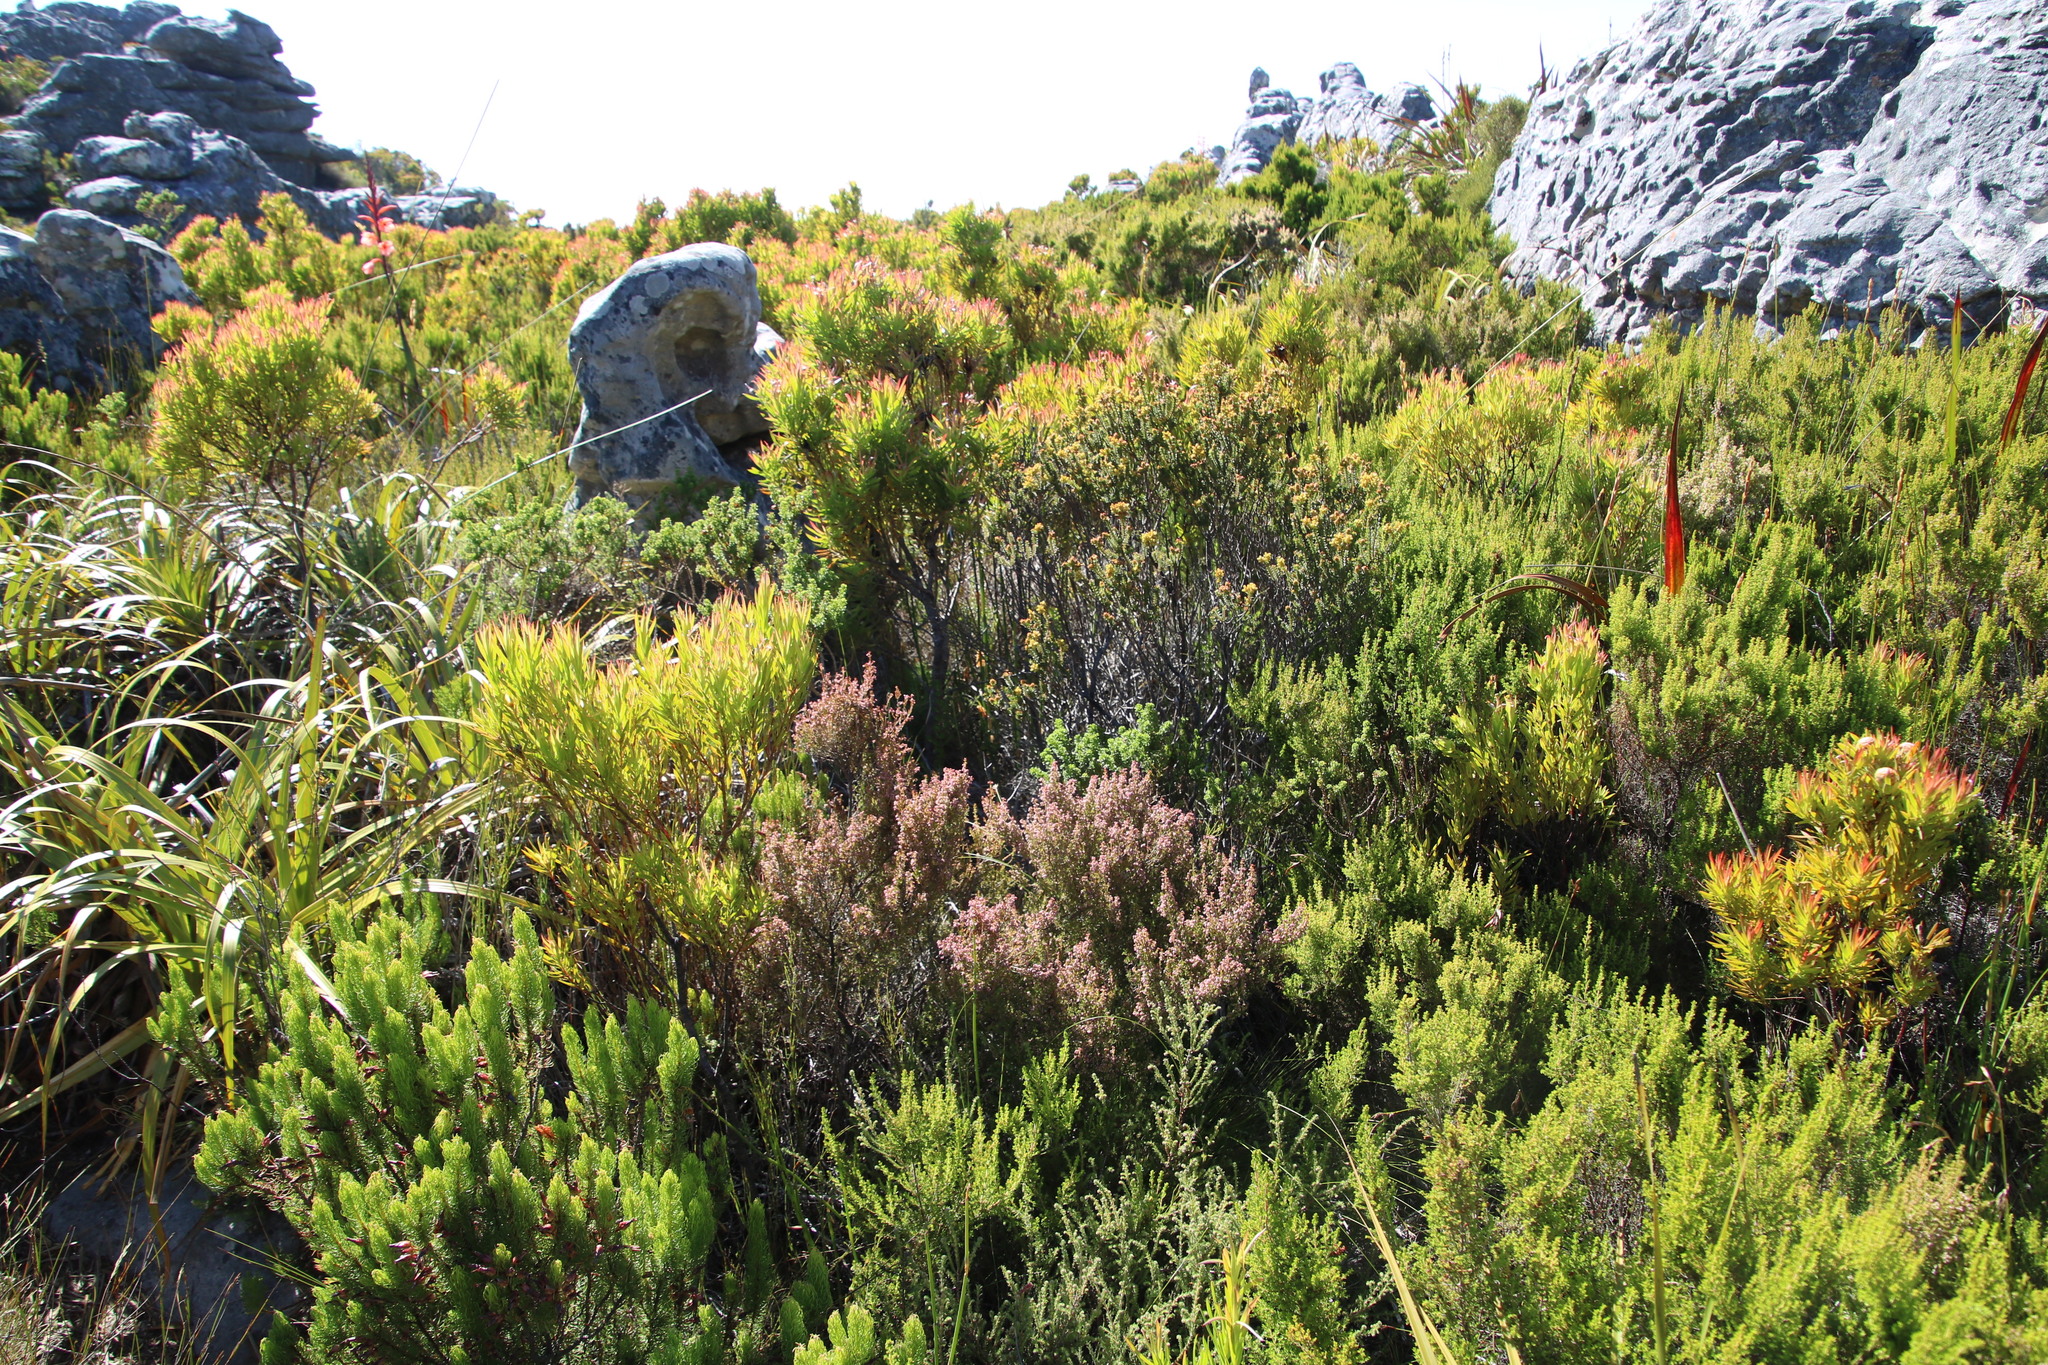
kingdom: Plantae
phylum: Tracheophyta
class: Magnoliopsida
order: Ericales
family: Ericaceae
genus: Erica
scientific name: Erica hispidula
